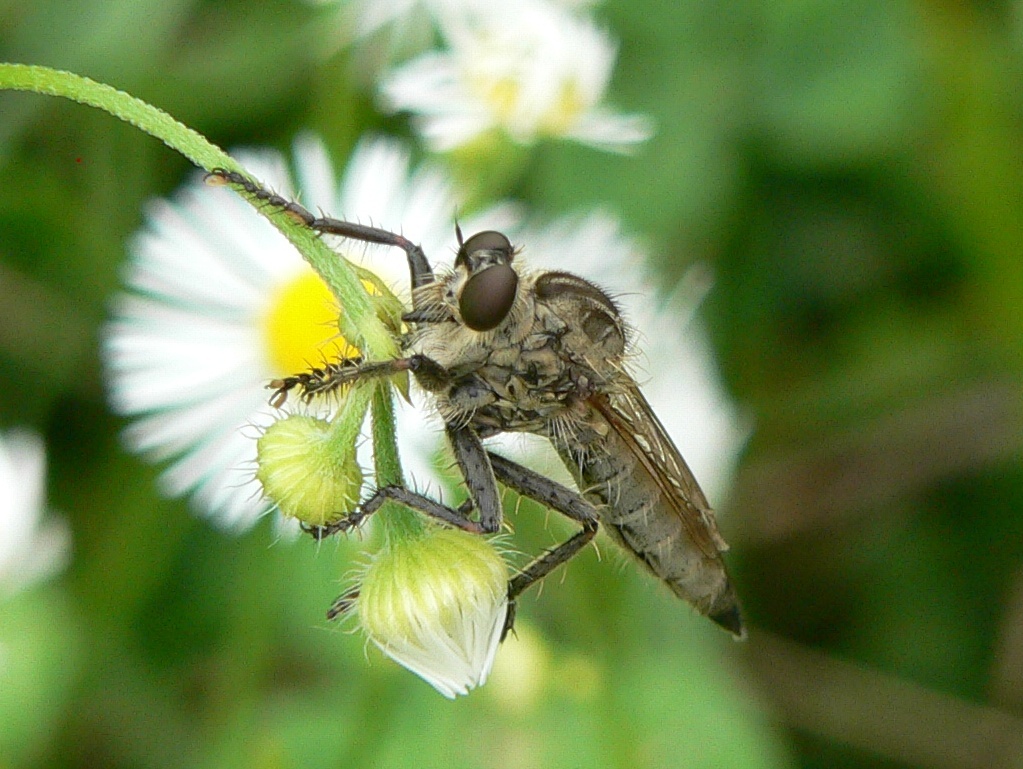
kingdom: Animalia
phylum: Arthropoda
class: Insecta
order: Diptera
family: Asilidae
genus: Machimus
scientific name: Machimus rusticus
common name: Downland robberfly
